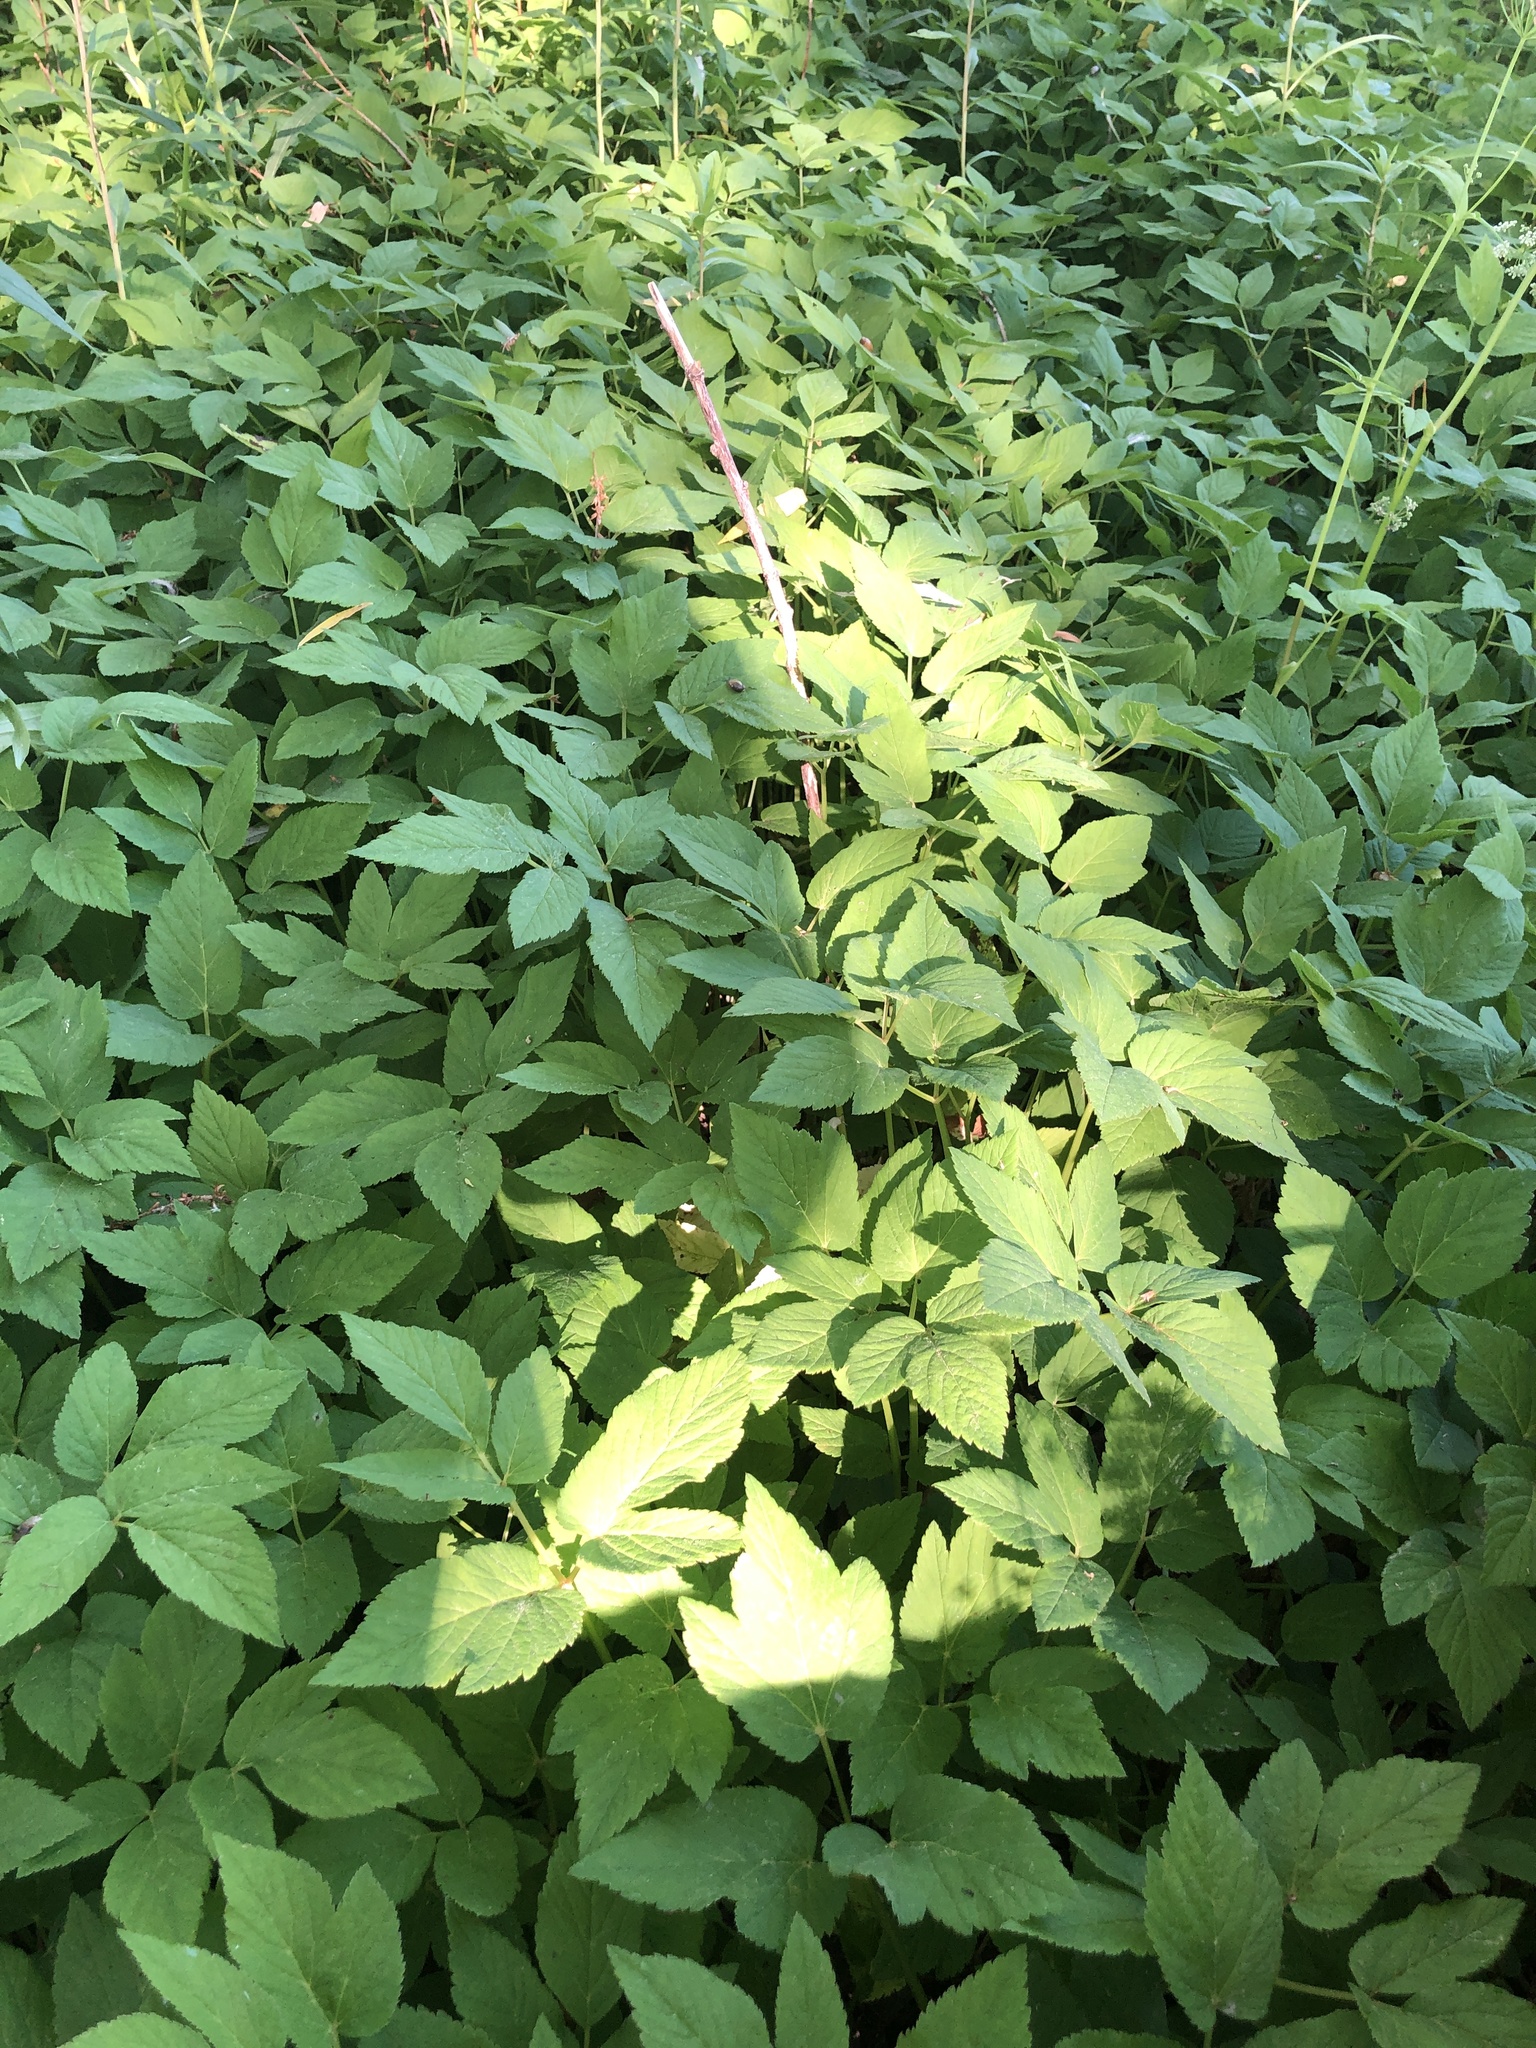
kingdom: Plantae
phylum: Tracheophyta
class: Magnoliopsida
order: Apiales
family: Apiaceae
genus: Aegopodium
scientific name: Aegopodium podagraria
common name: Ground-elder
